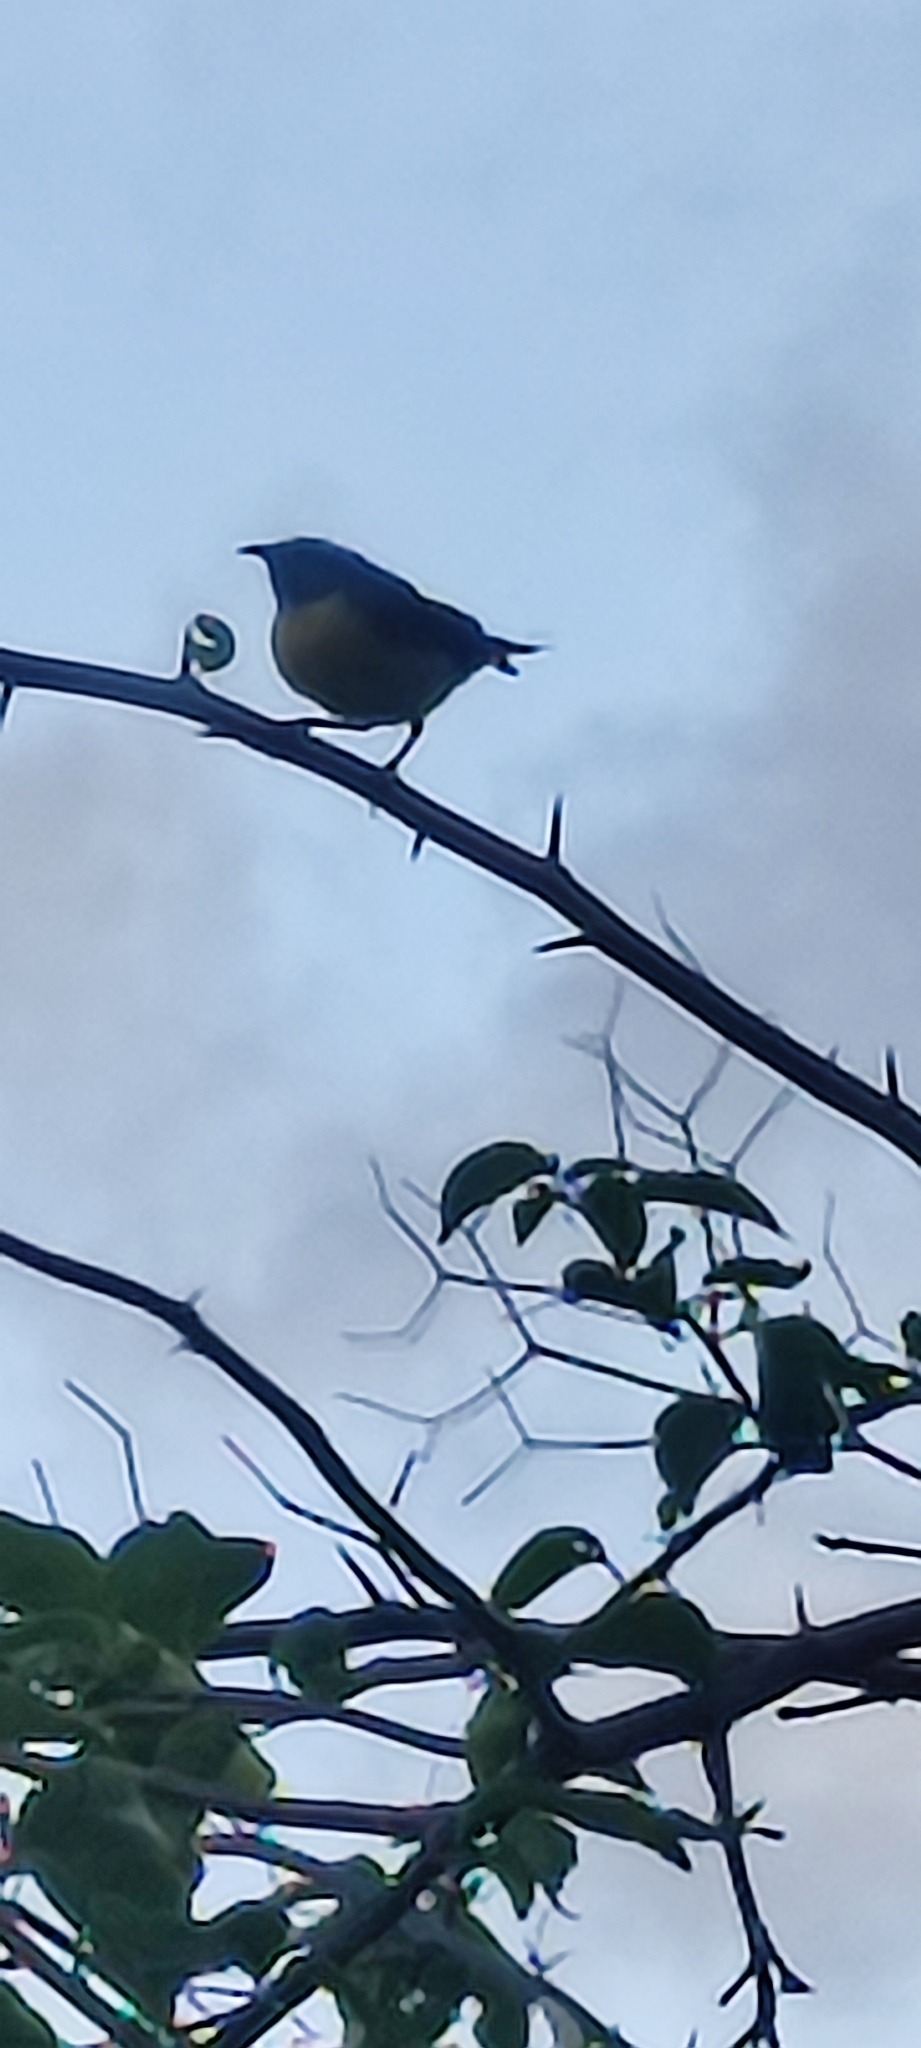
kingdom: Animalia
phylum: Chordata
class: Aves
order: Passeriformes
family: Thraupidae
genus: Coereba
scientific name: Coereba flaveola
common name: Bananaquit
